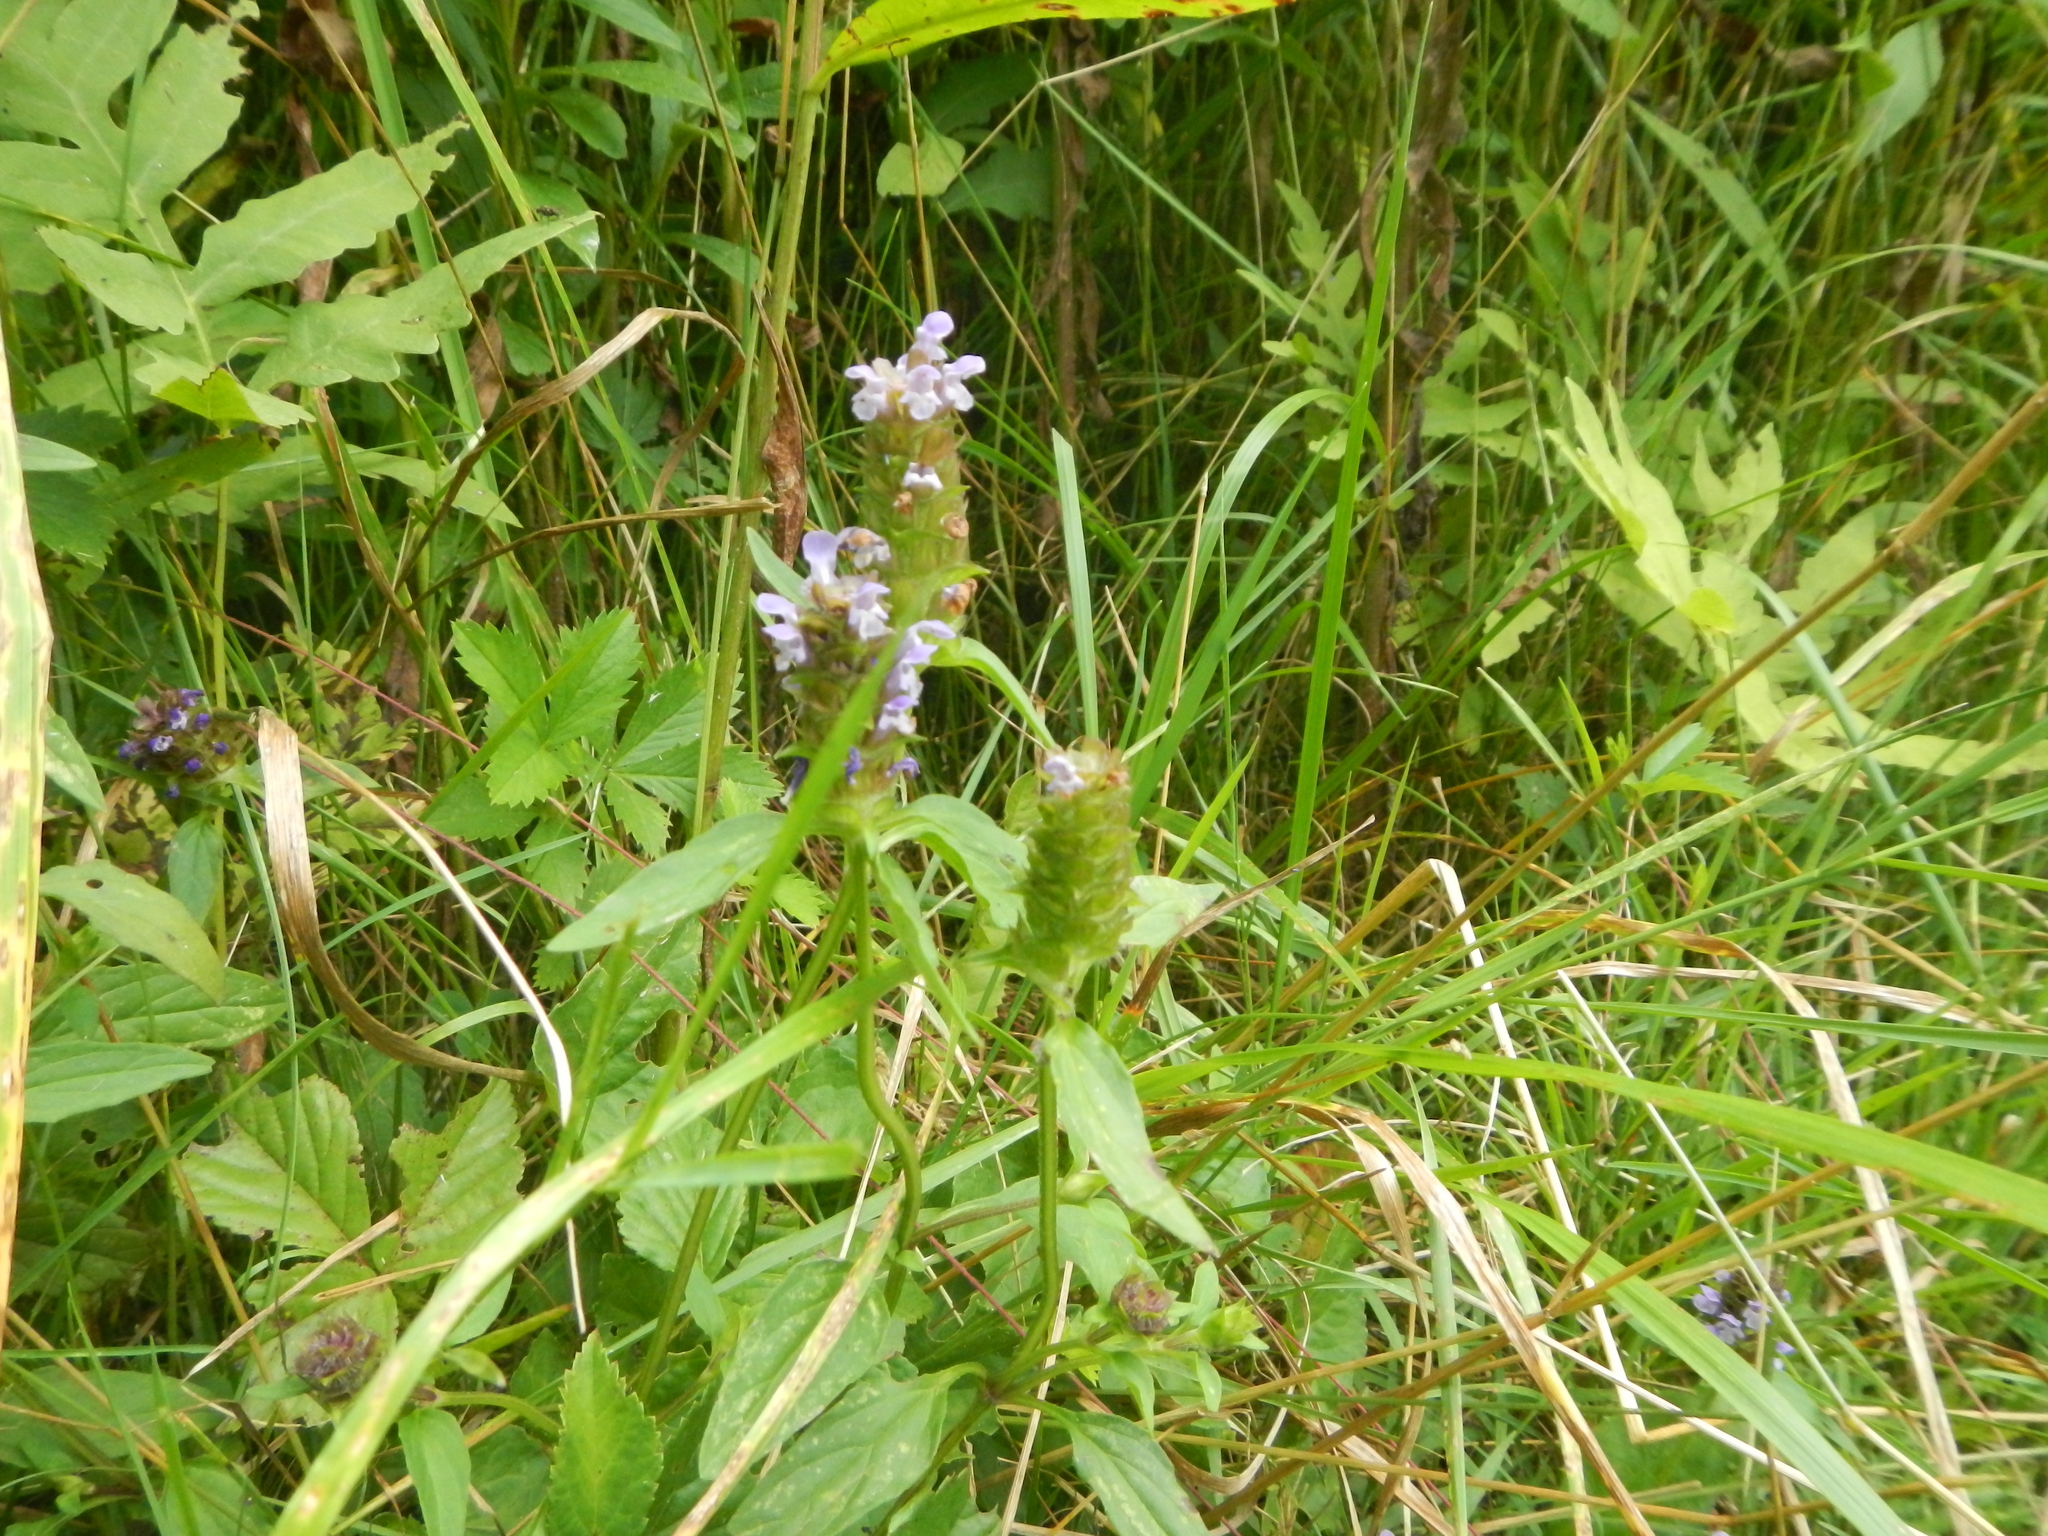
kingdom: Plantae
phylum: Tracheophyta
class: Magnoliopsida
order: Lamiales
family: Lamiaceae
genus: Prunella
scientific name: Prunella vulgaris
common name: Heal-all
